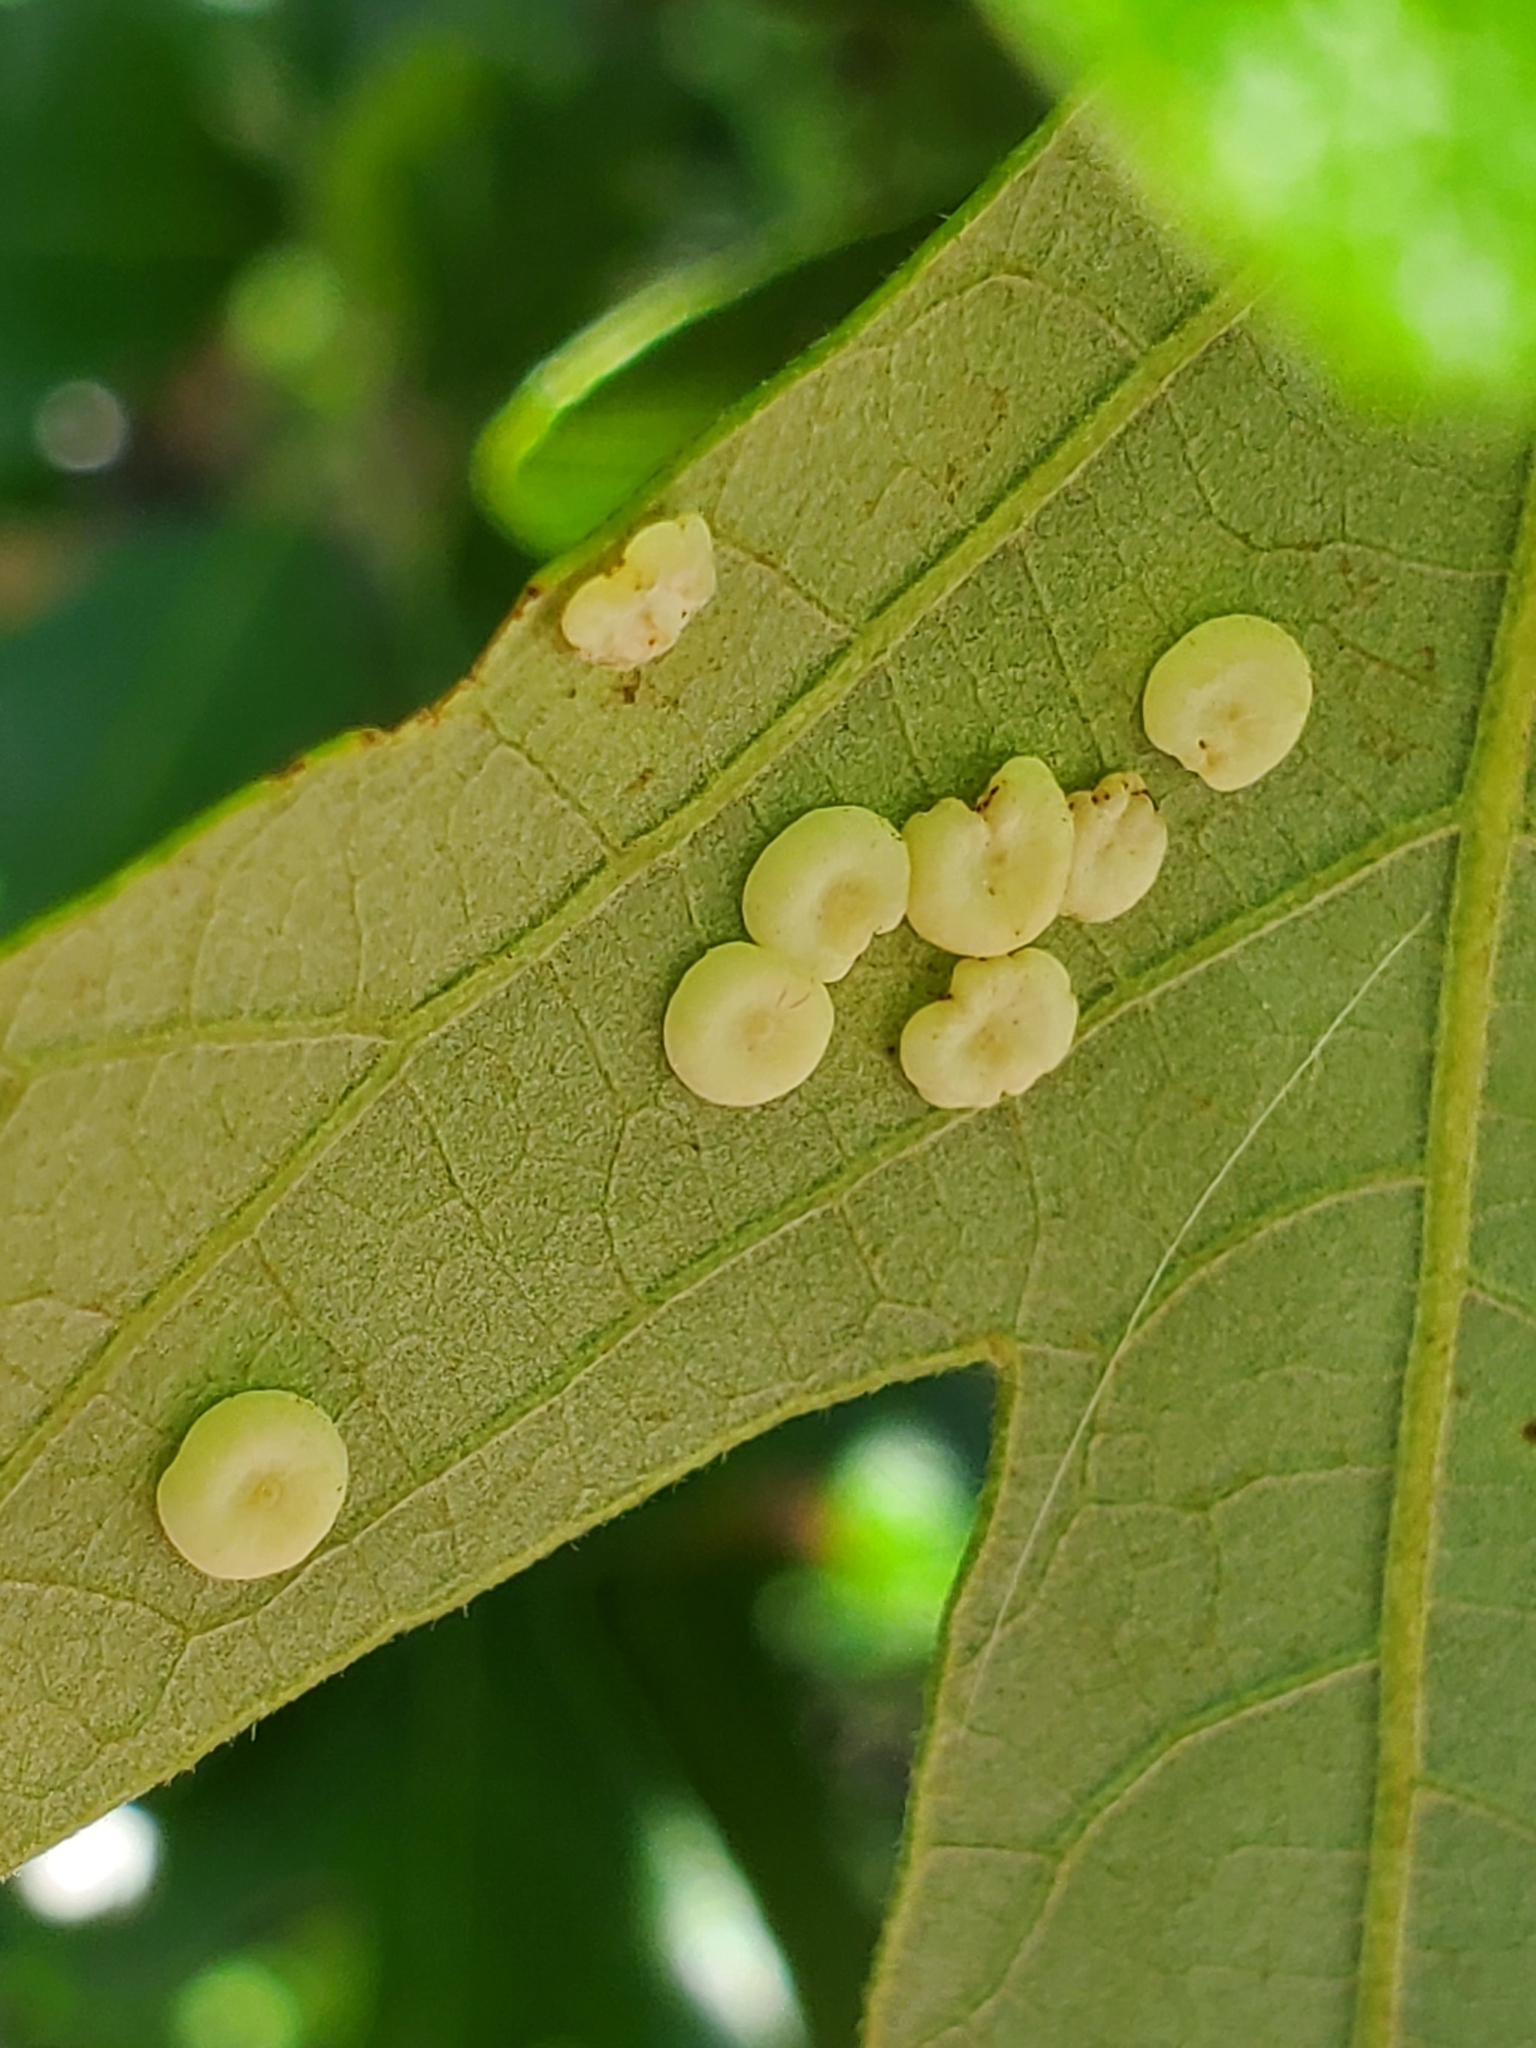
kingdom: Animalia
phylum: Arthropoda
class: Insecta
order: Hymenoptera
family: Cynipidae
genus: Phylloteras
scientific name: Phylloteras poculum
